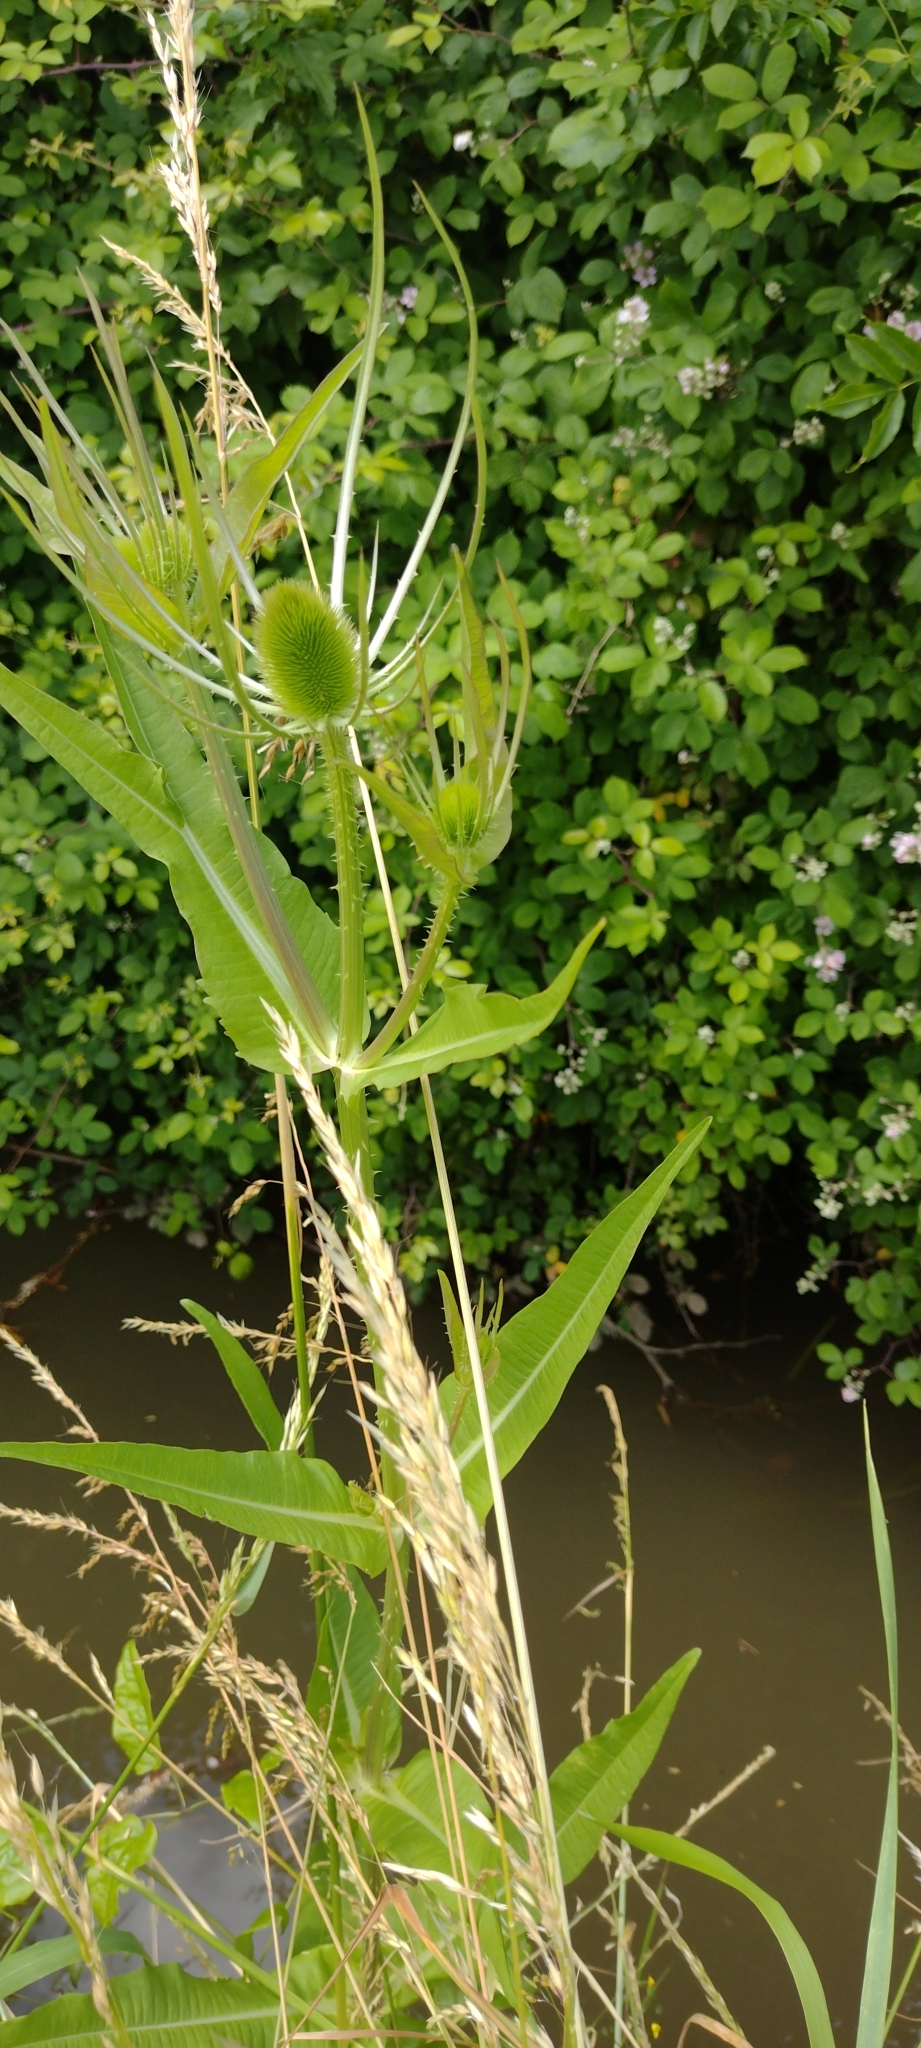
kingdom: Plantae
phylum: Tracheophyta
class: Magnoliopsida
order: Dipsacales
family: Caprifoliaceae
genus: Dipsacus
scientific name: Dipsacus fullonum
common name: Teasel
